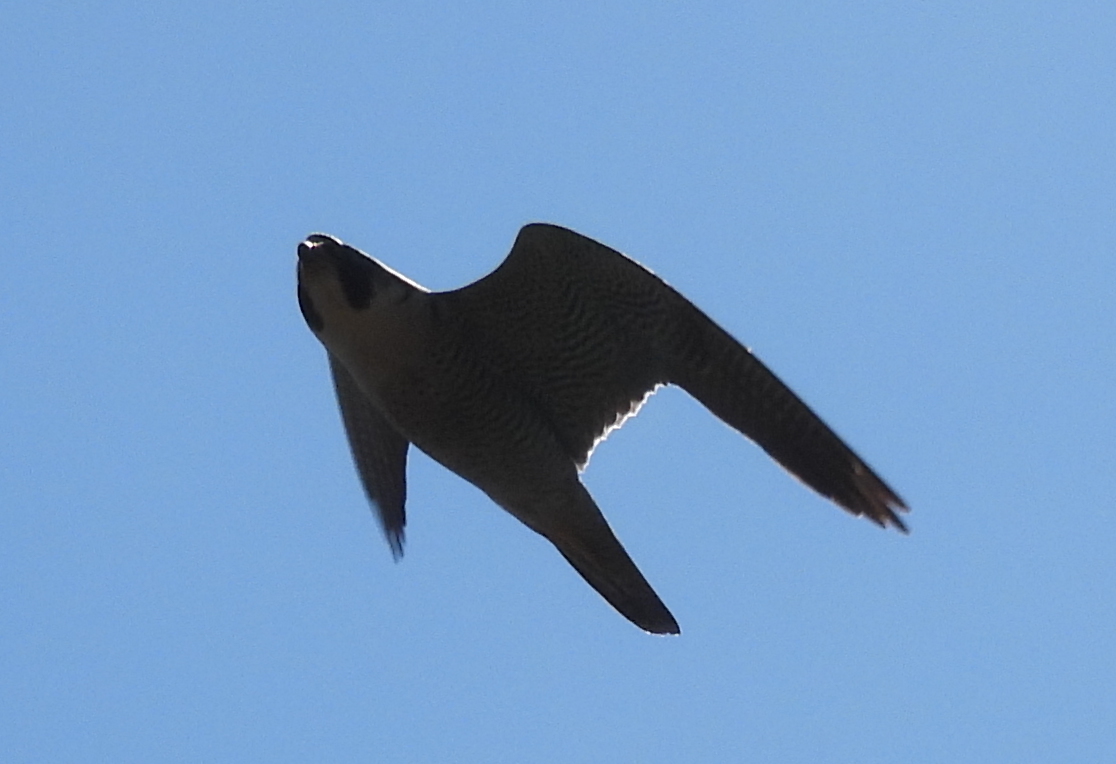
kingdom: Animalia
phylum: Chordata
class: Aves
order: Falconiformes
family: Falconidae
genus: Falco
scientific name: Falco peregrinus
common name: Peregrine falcon
